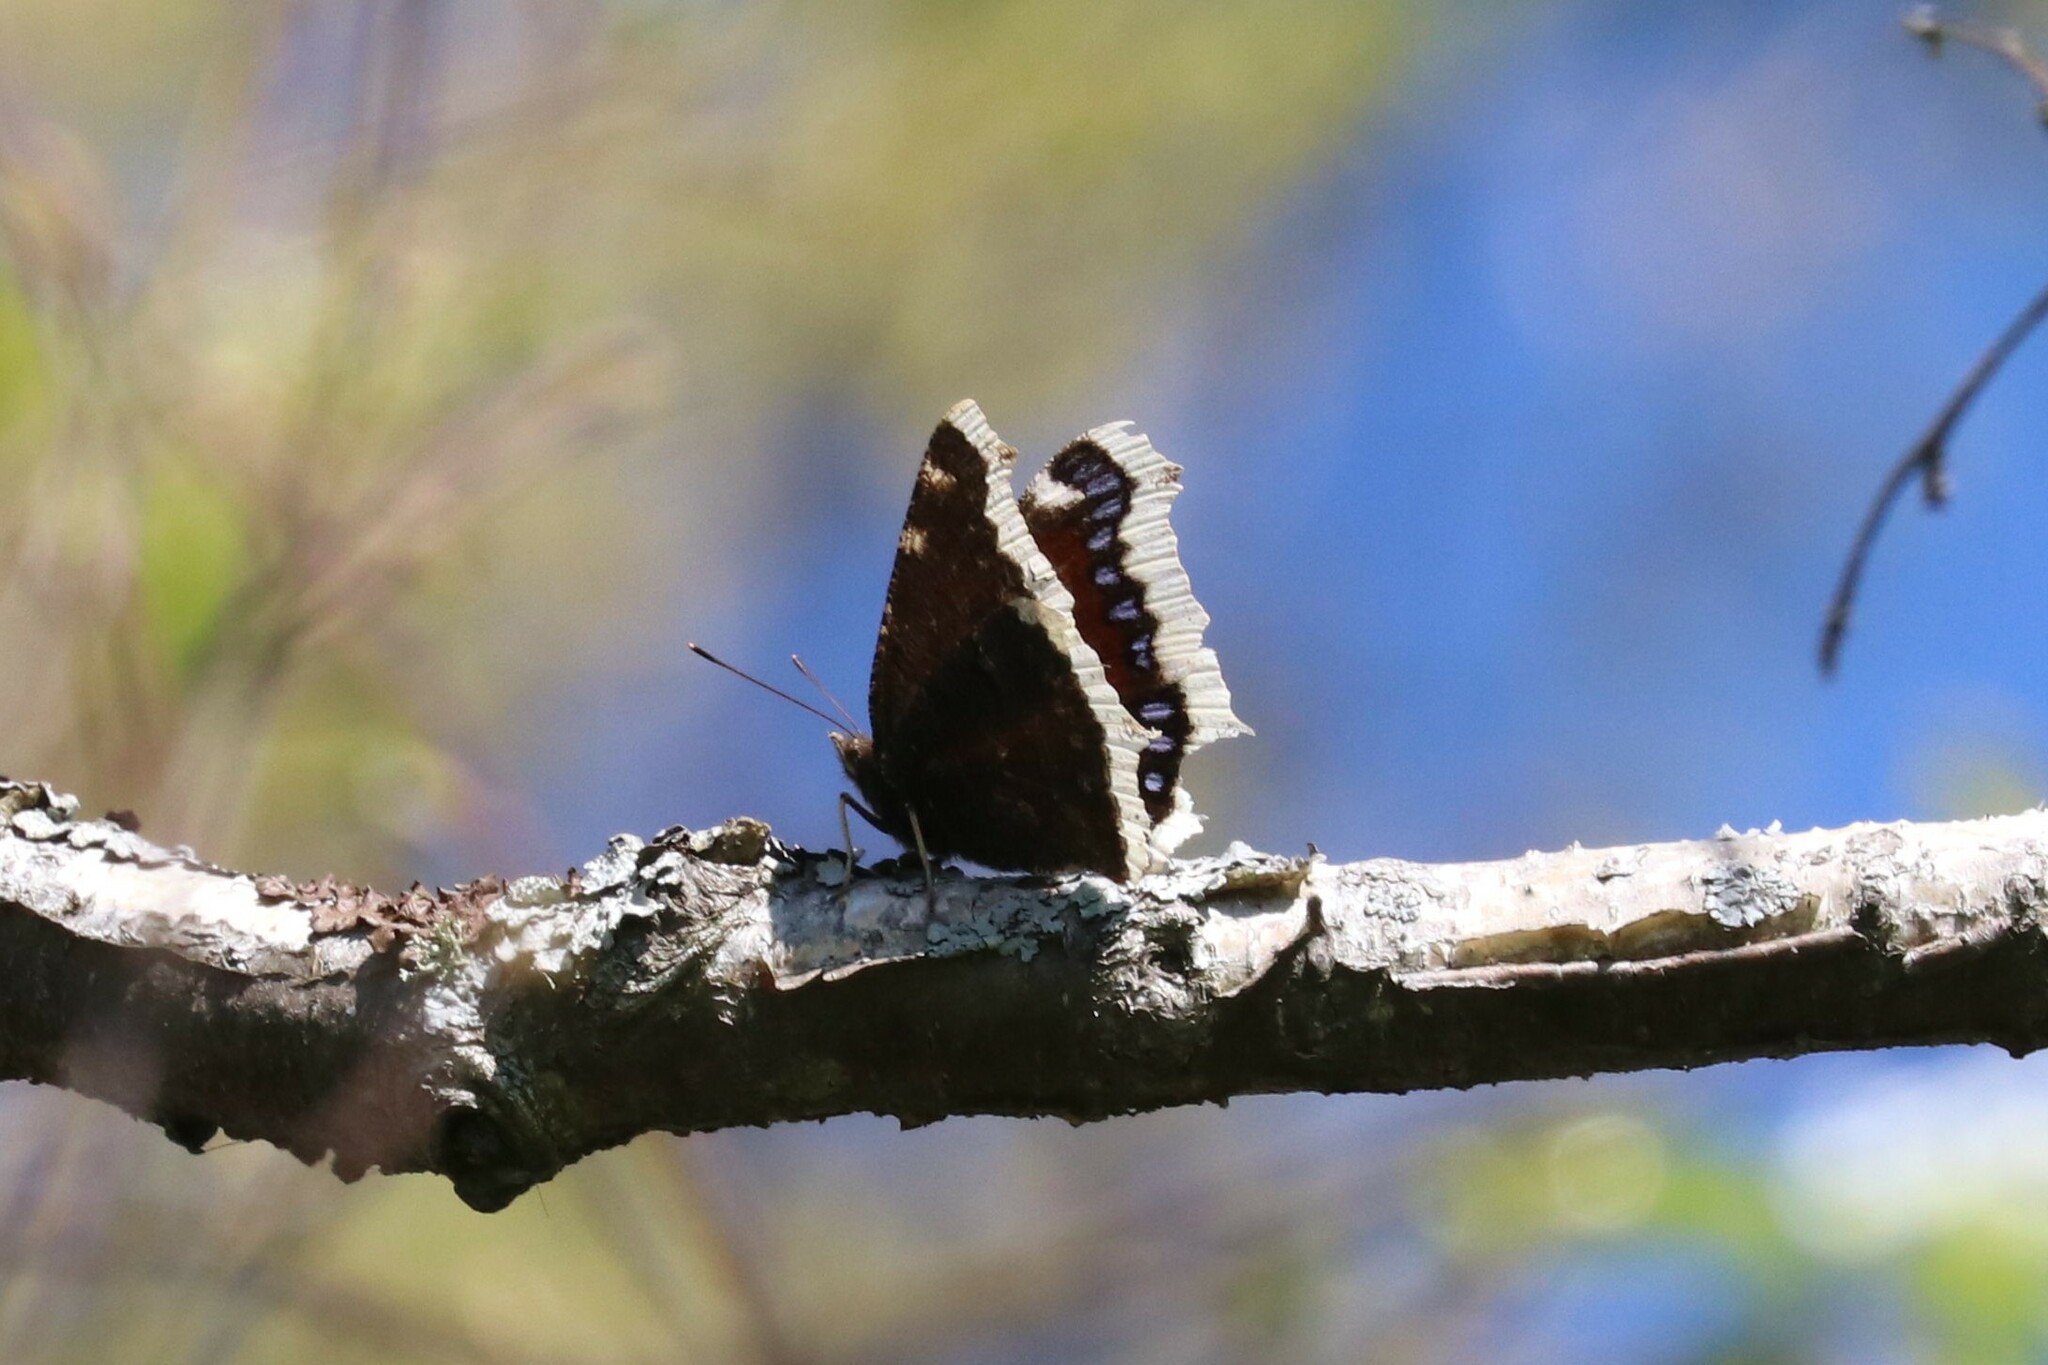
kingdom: Animalia
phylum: Arthropoda
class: Insecta
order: Lepidoptera
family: Nymphalidae
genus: Nymphalis
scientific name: Nymphalis antiopa
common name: Camberwell beauty
